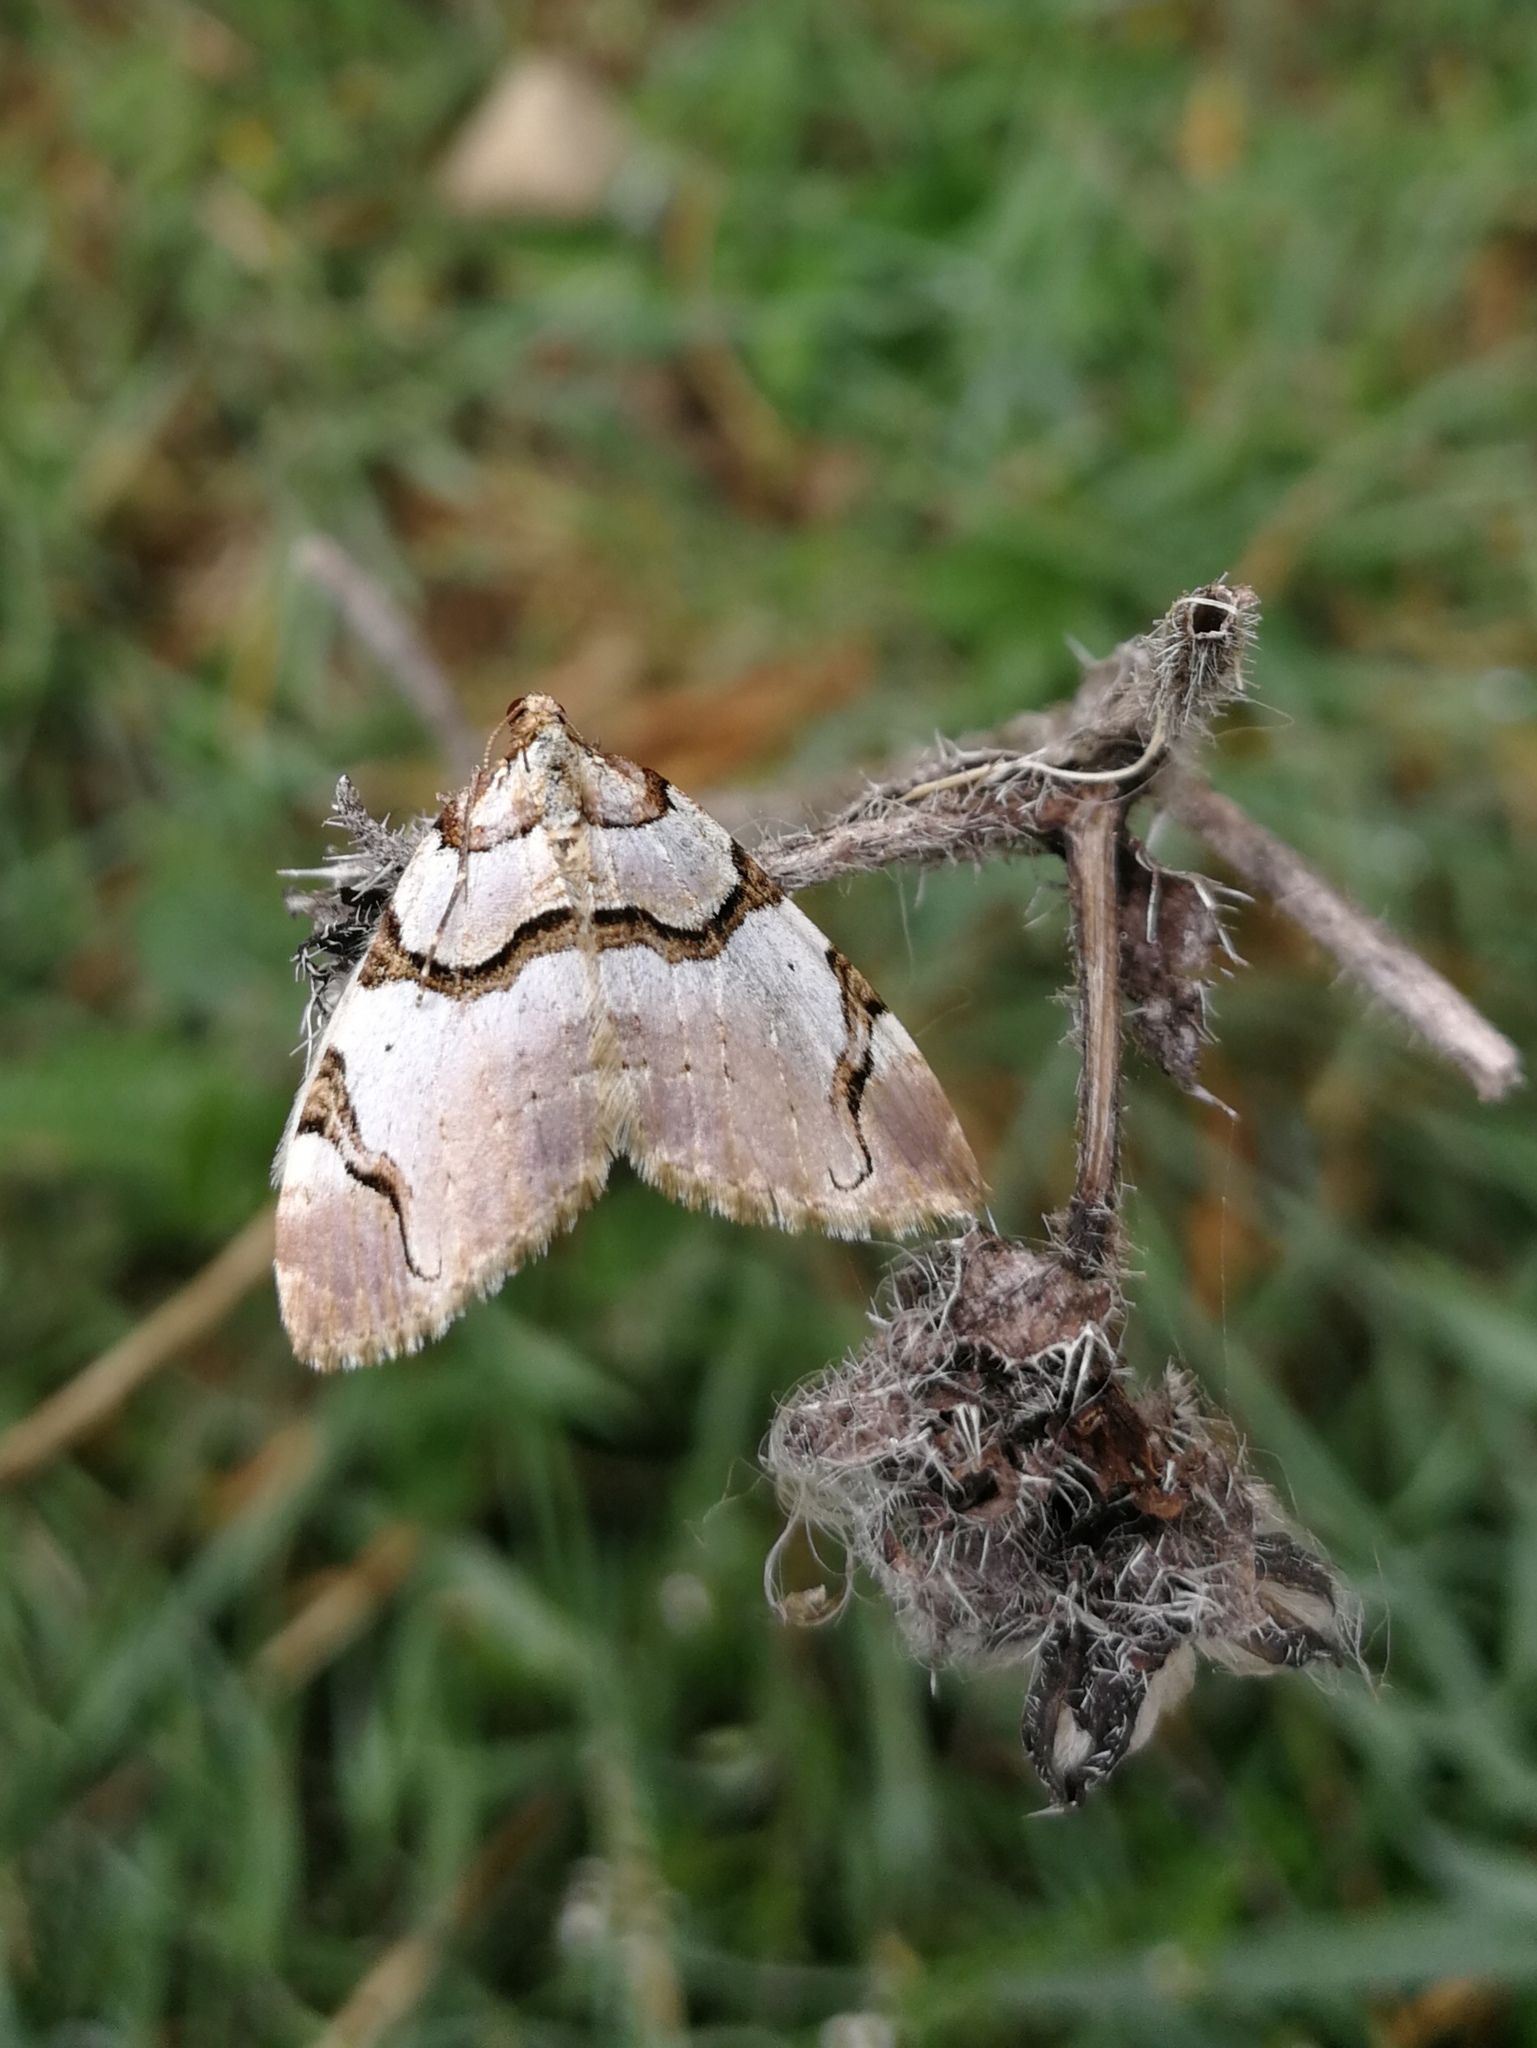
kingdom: Animalia
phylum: Arthropoda
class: Insecta
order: Lepidoptera
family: Geometridae
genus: Anticlea
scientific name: Anticlea derivata
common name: Streamer
